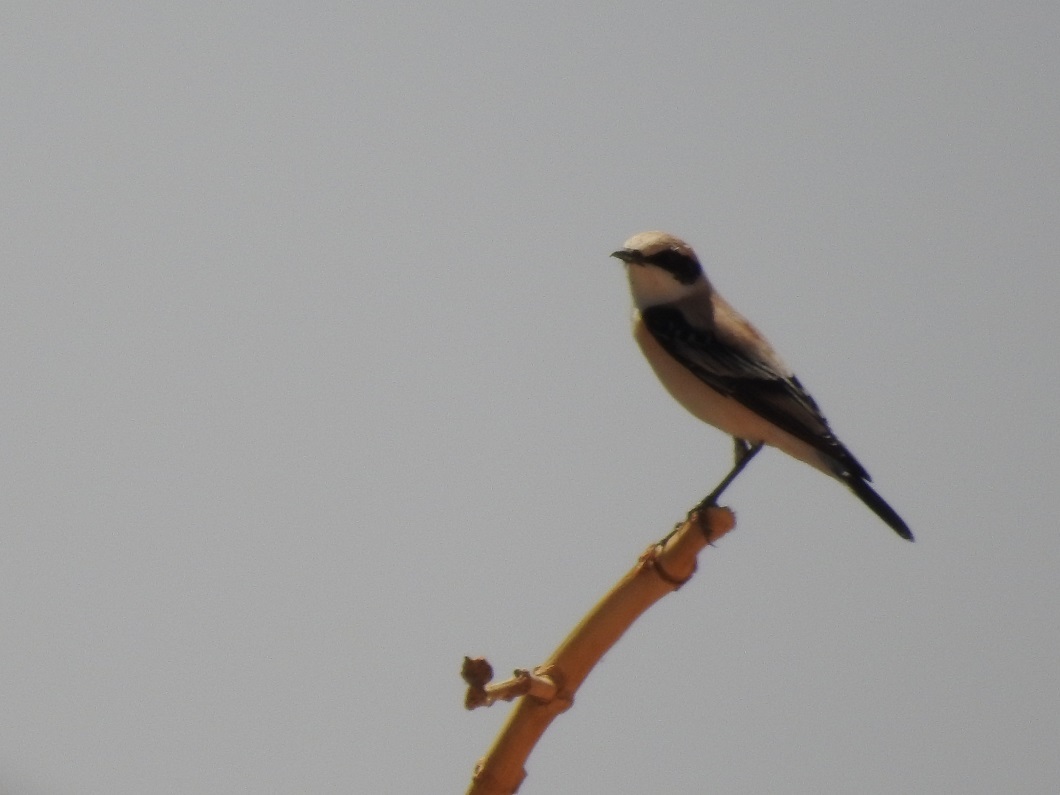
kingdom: Animalia
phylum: Chordata
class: Aves
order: Passeriformes
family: Muscicapidae
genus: Oenanthe
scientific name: Oenanthe oenanthe
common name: Northern wheatear
